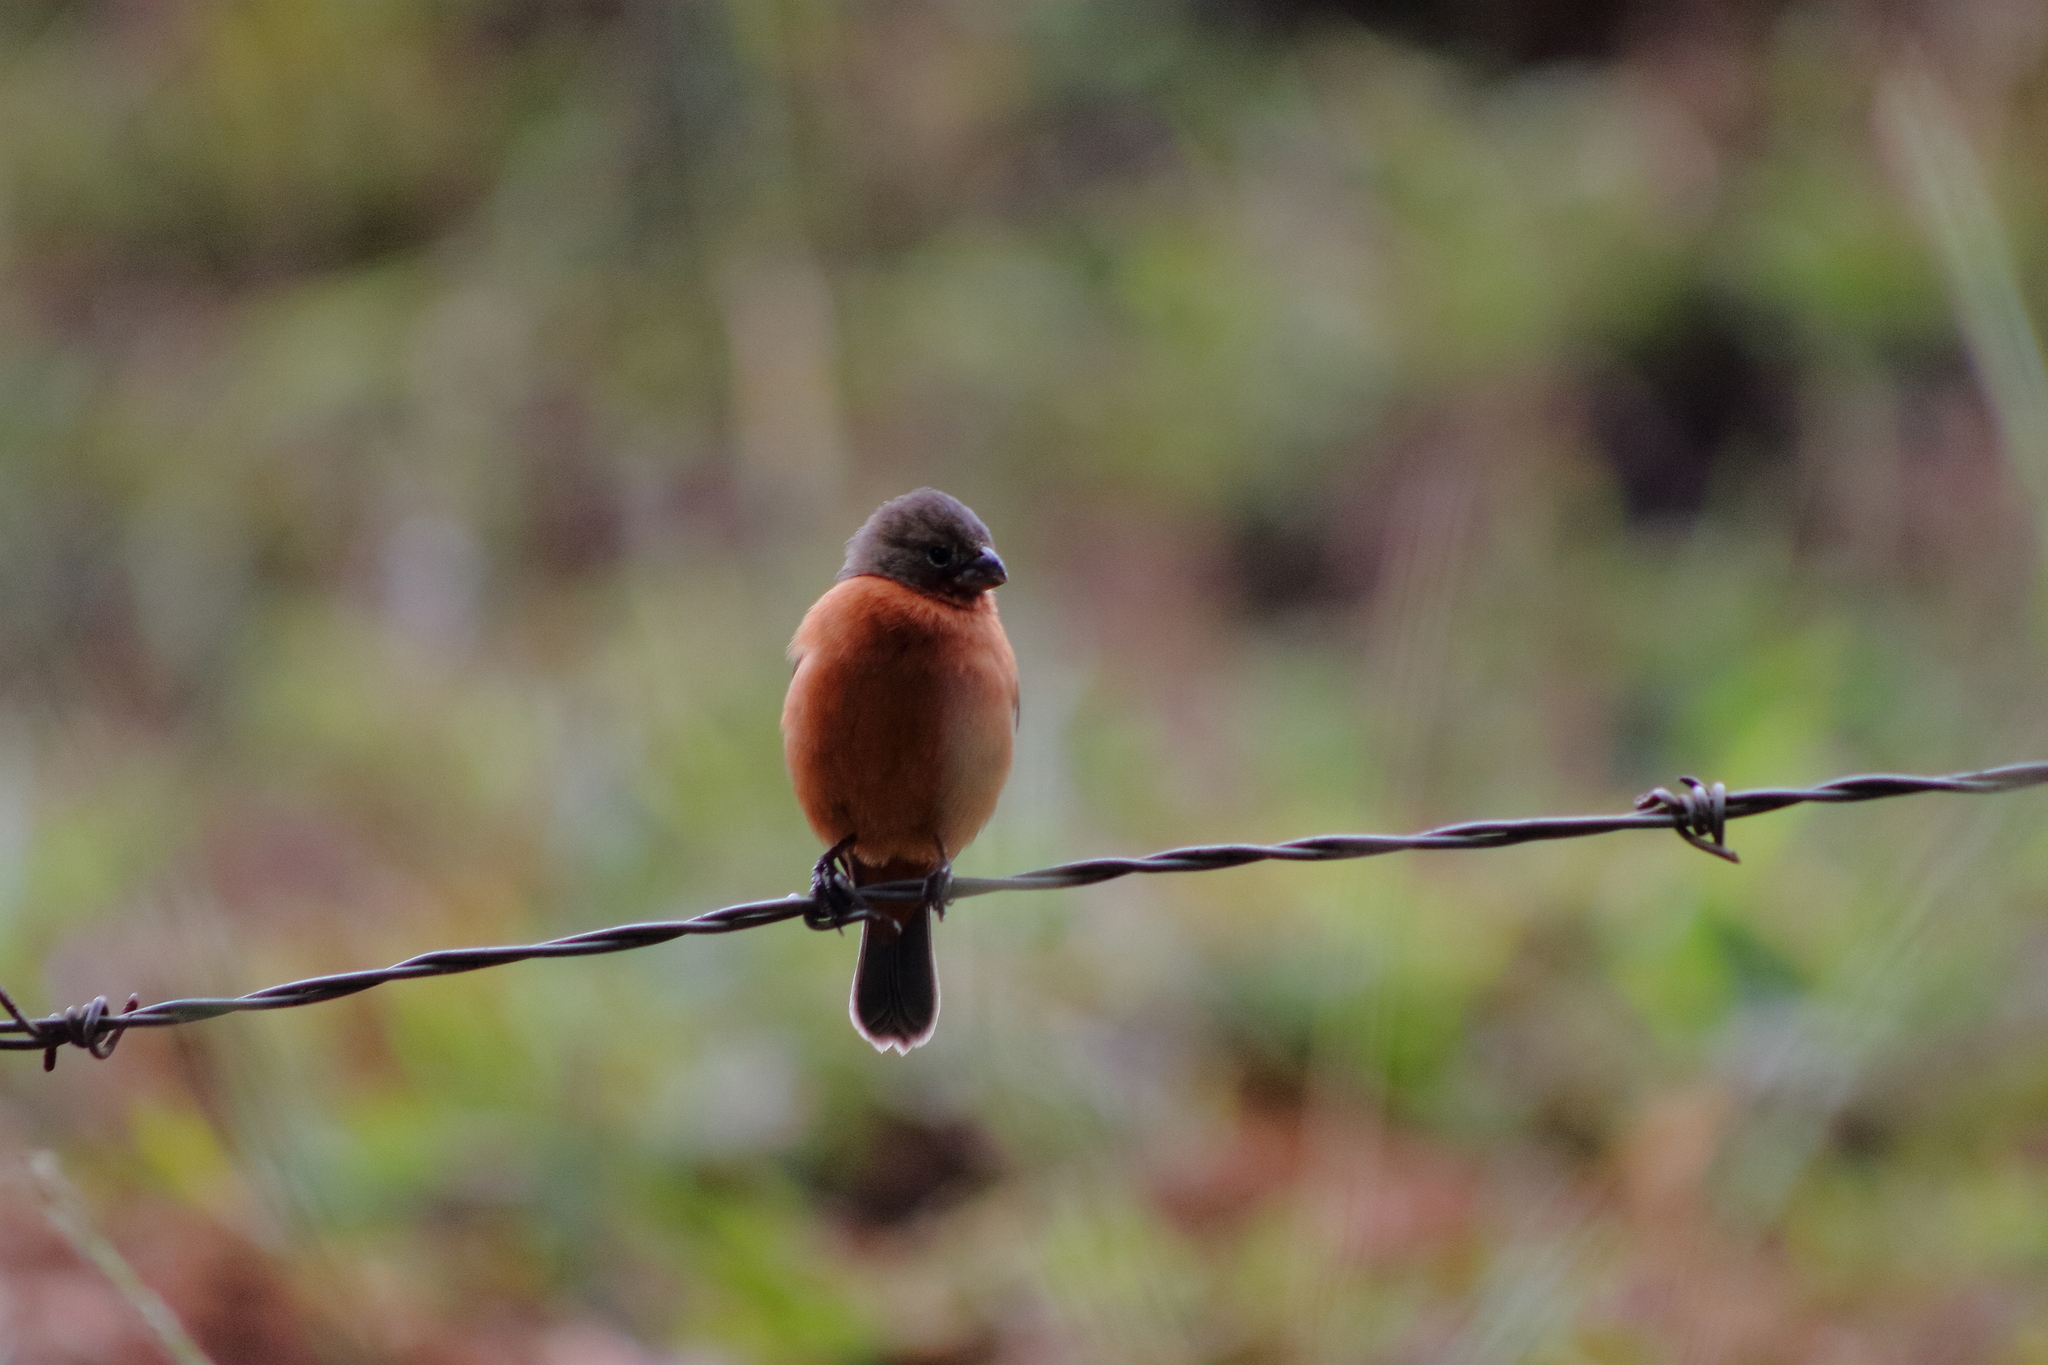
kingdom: Animalia
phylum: Chordata
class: Aves
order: Passeriformes
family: Thraupidae
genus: Sporophila
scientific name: Sporophila minuta
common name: Ruddy-breasted seedeater
